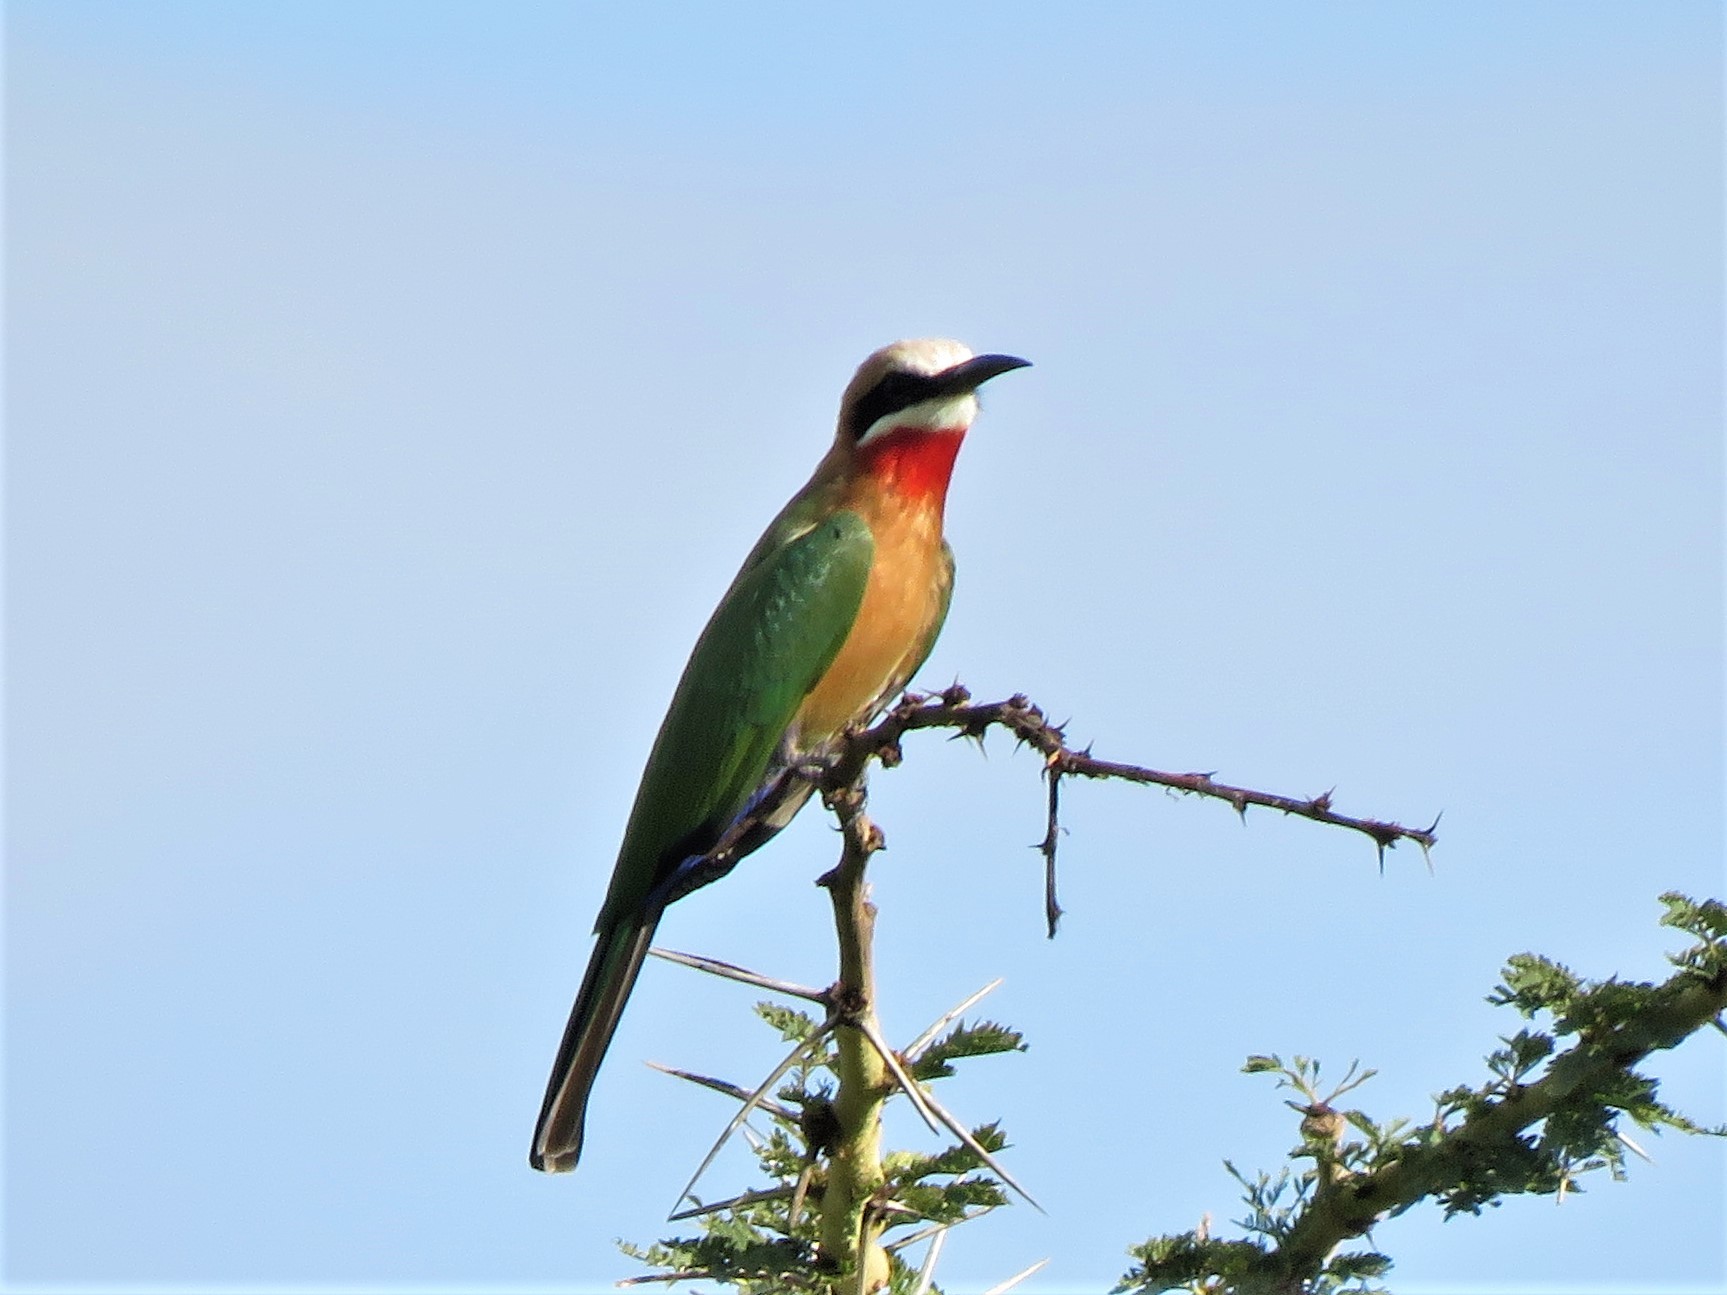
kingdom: Animalia
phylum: Chordata
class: Aves
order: Coraciiformes
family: Meropidae
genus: Merops
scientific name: Merops bullockoides
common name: White-fronted bee-eater
